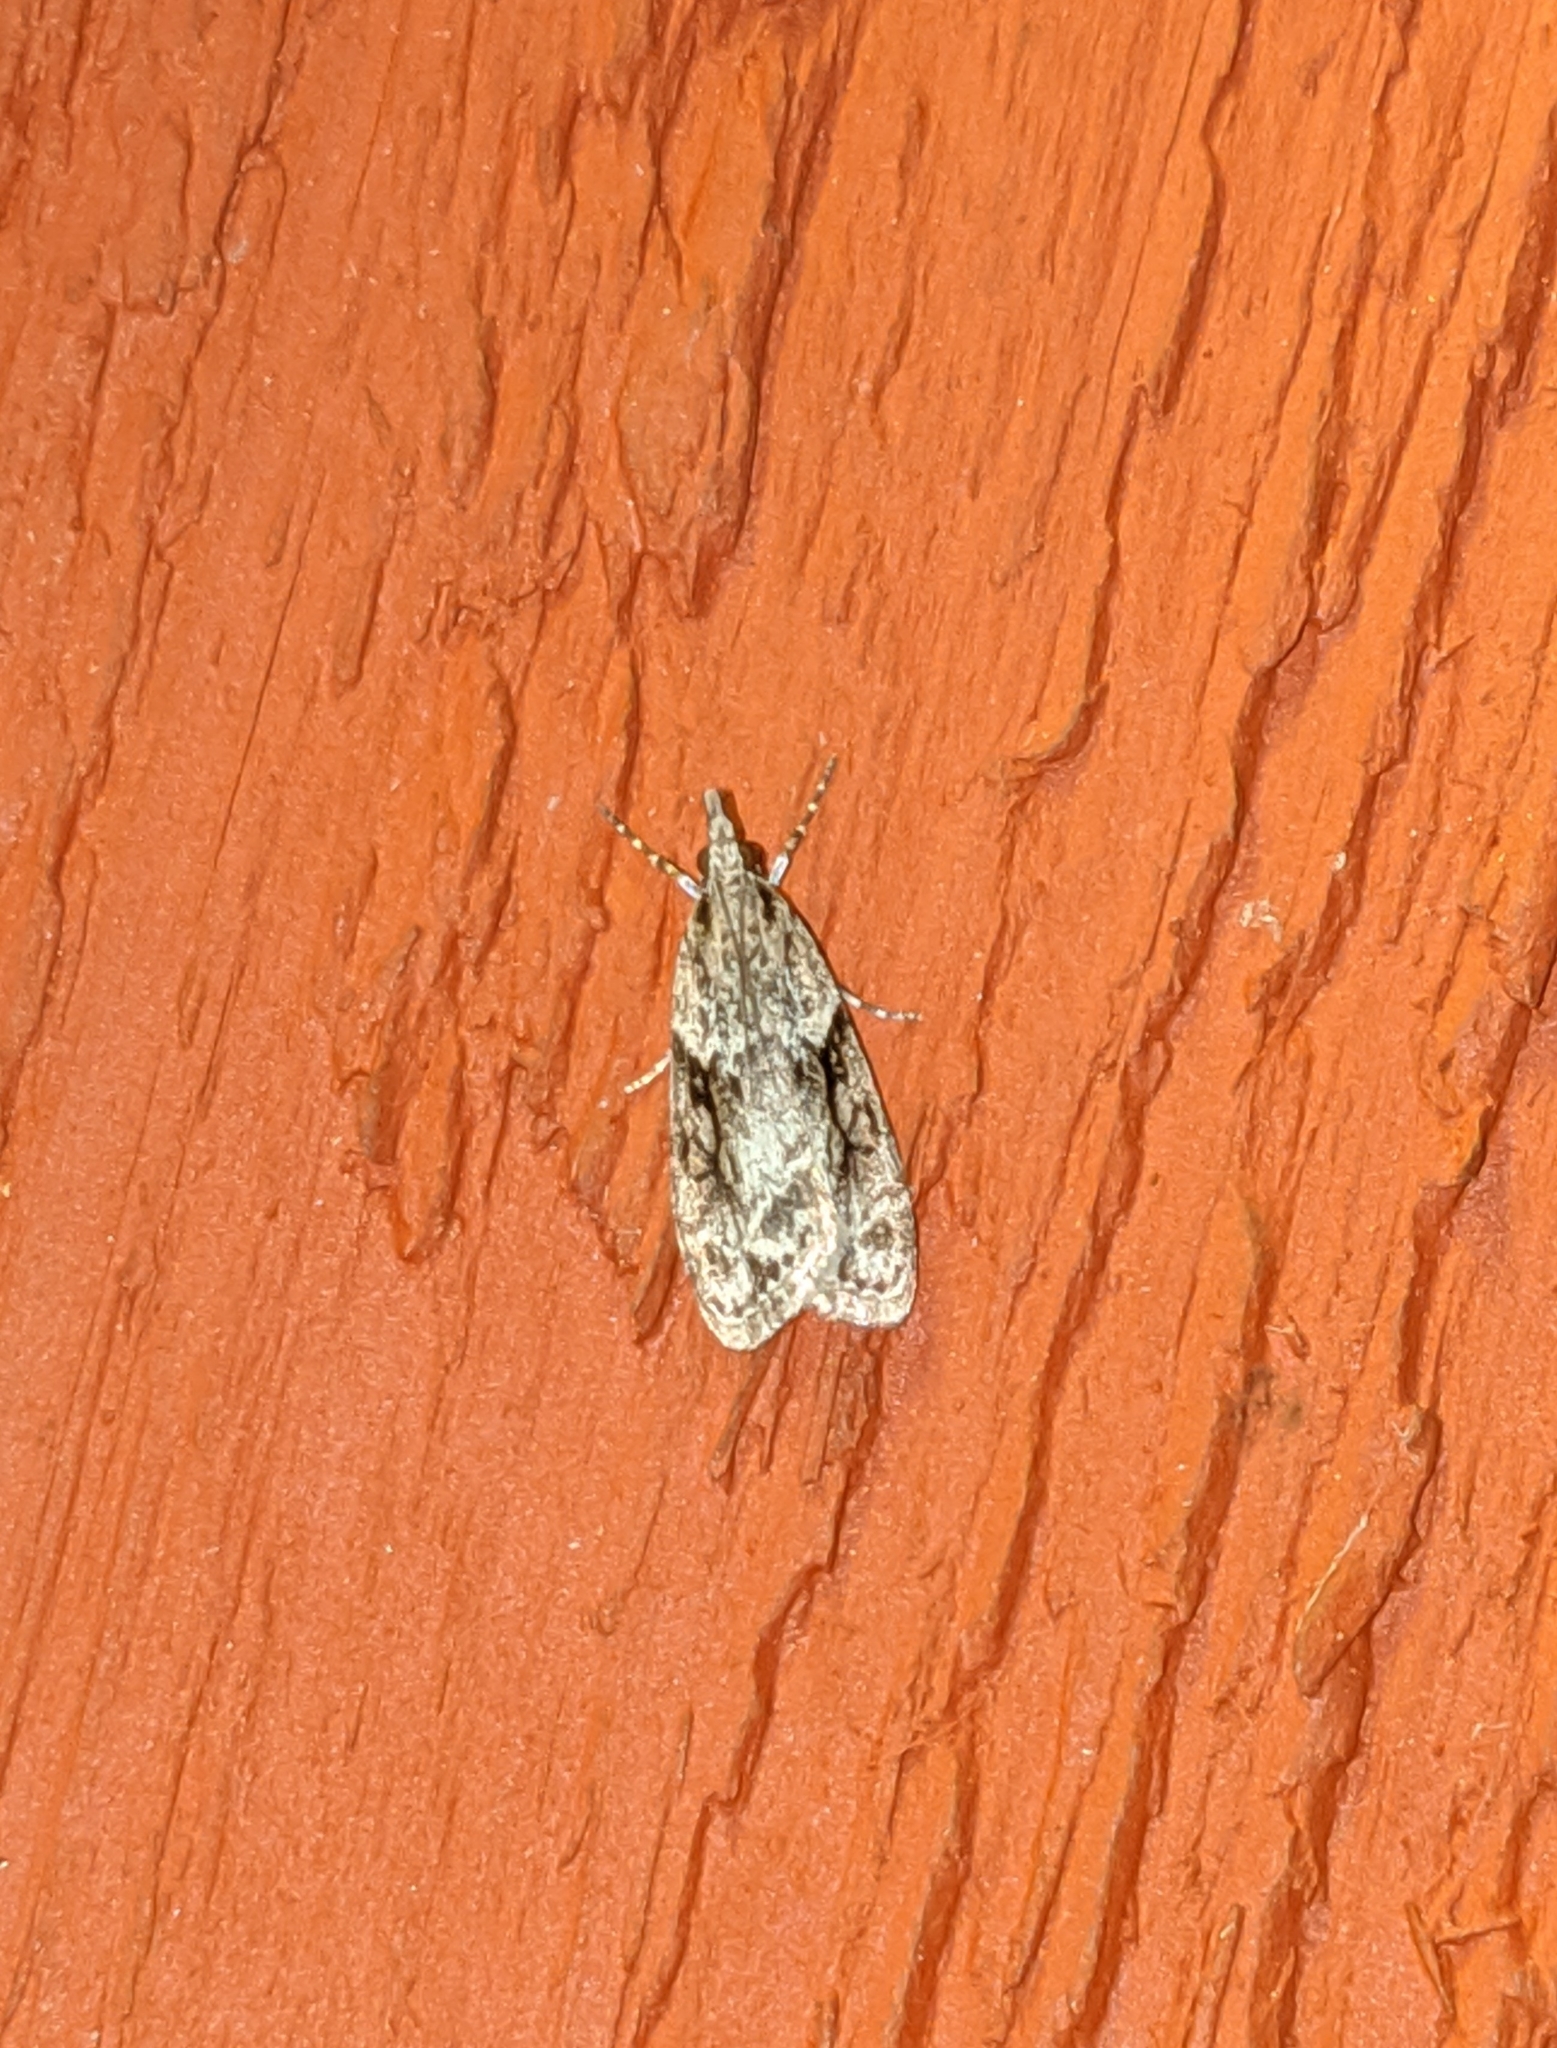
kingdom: Animalia
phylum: Arthropoda
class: Insecta
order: Lepidoptera
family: Crambidae
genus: Scoparia
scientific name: Scoparia biplagialis
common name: Double-striped scoparia moth
